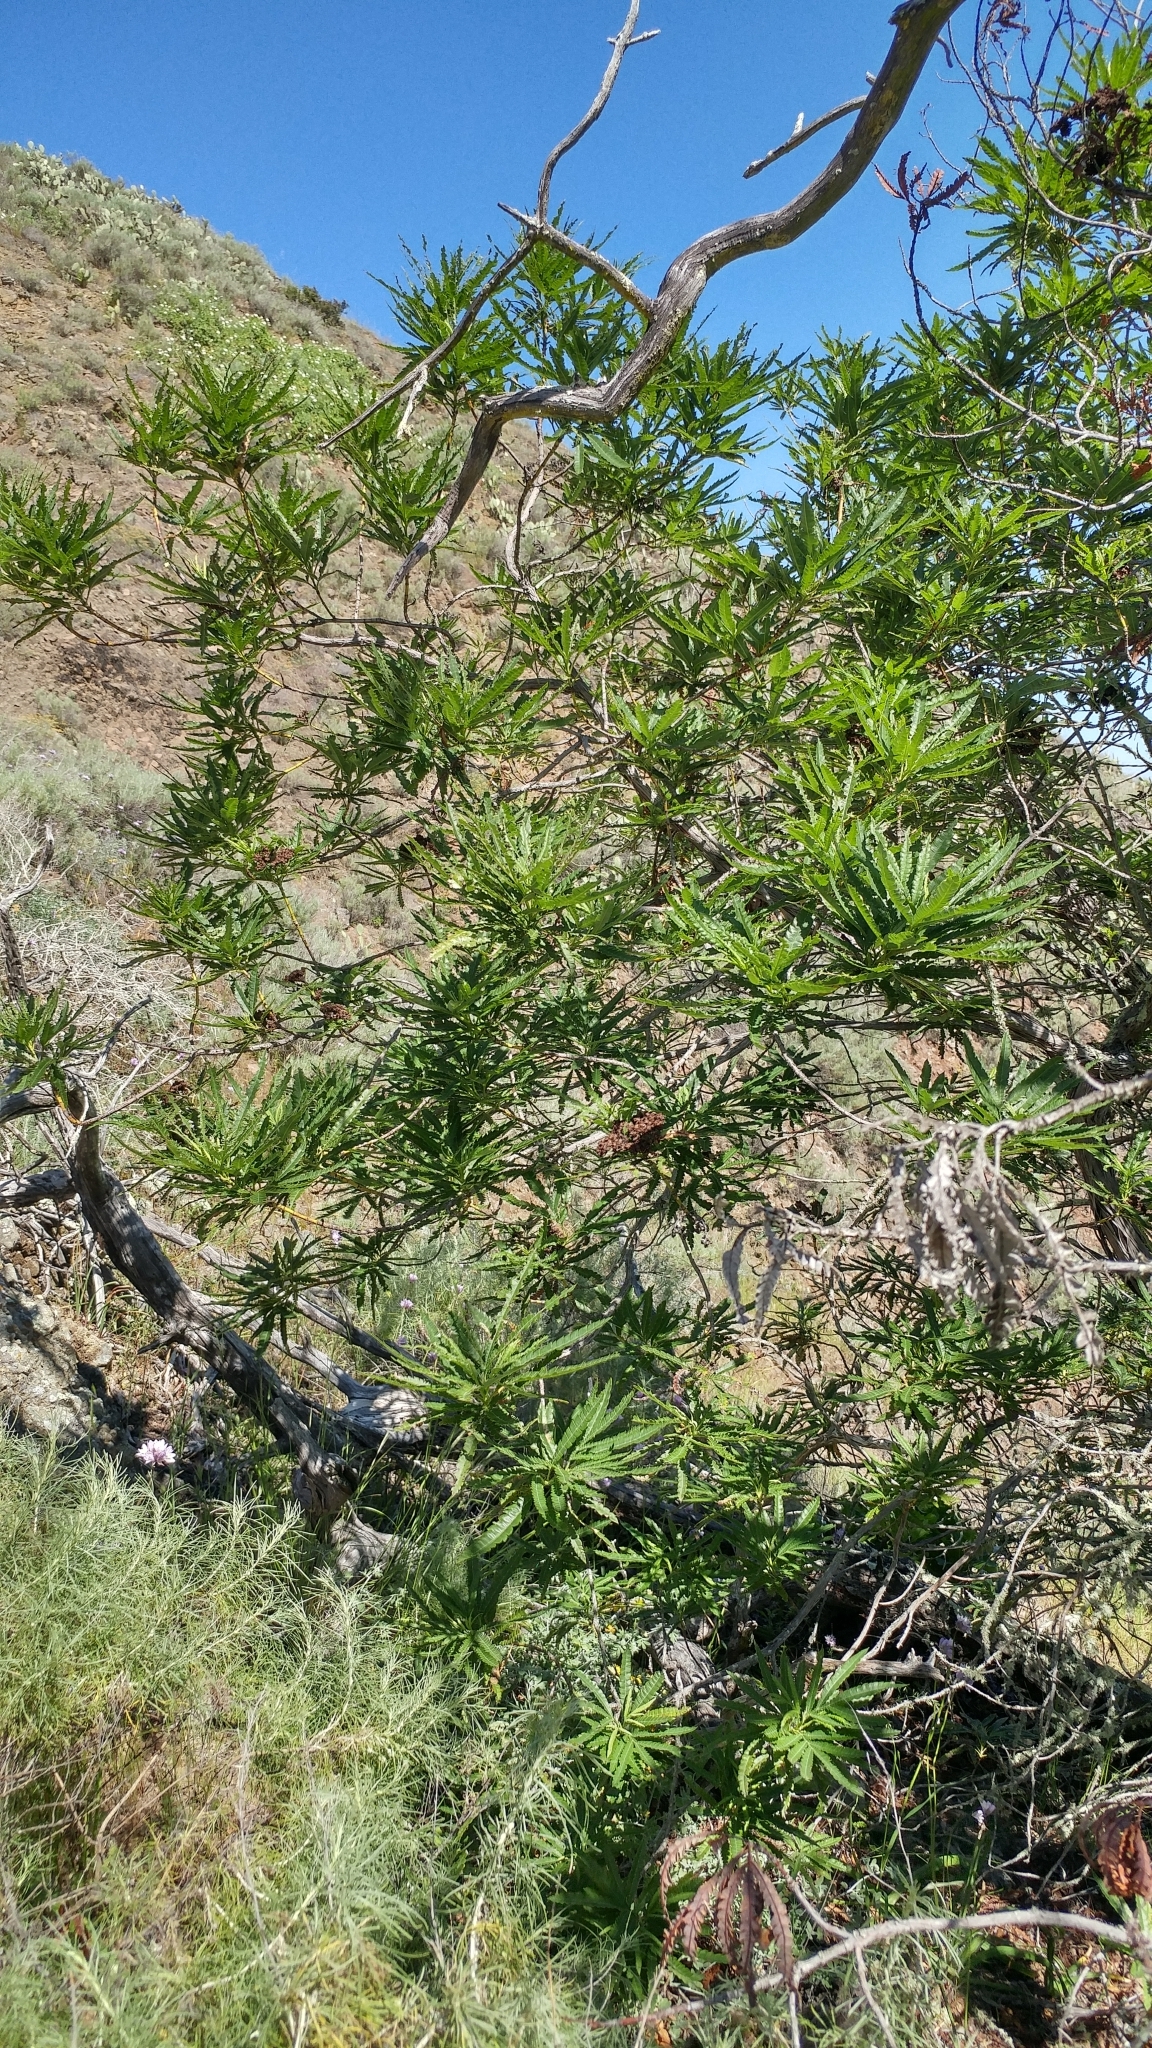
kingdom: Plantae
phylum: Tracheophyta
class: Magnoliopsida
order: Rosales
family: Rosaceae
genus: Lyonothamnus
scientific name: Lyonothamnus floribundus
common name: Catalina ironwood
